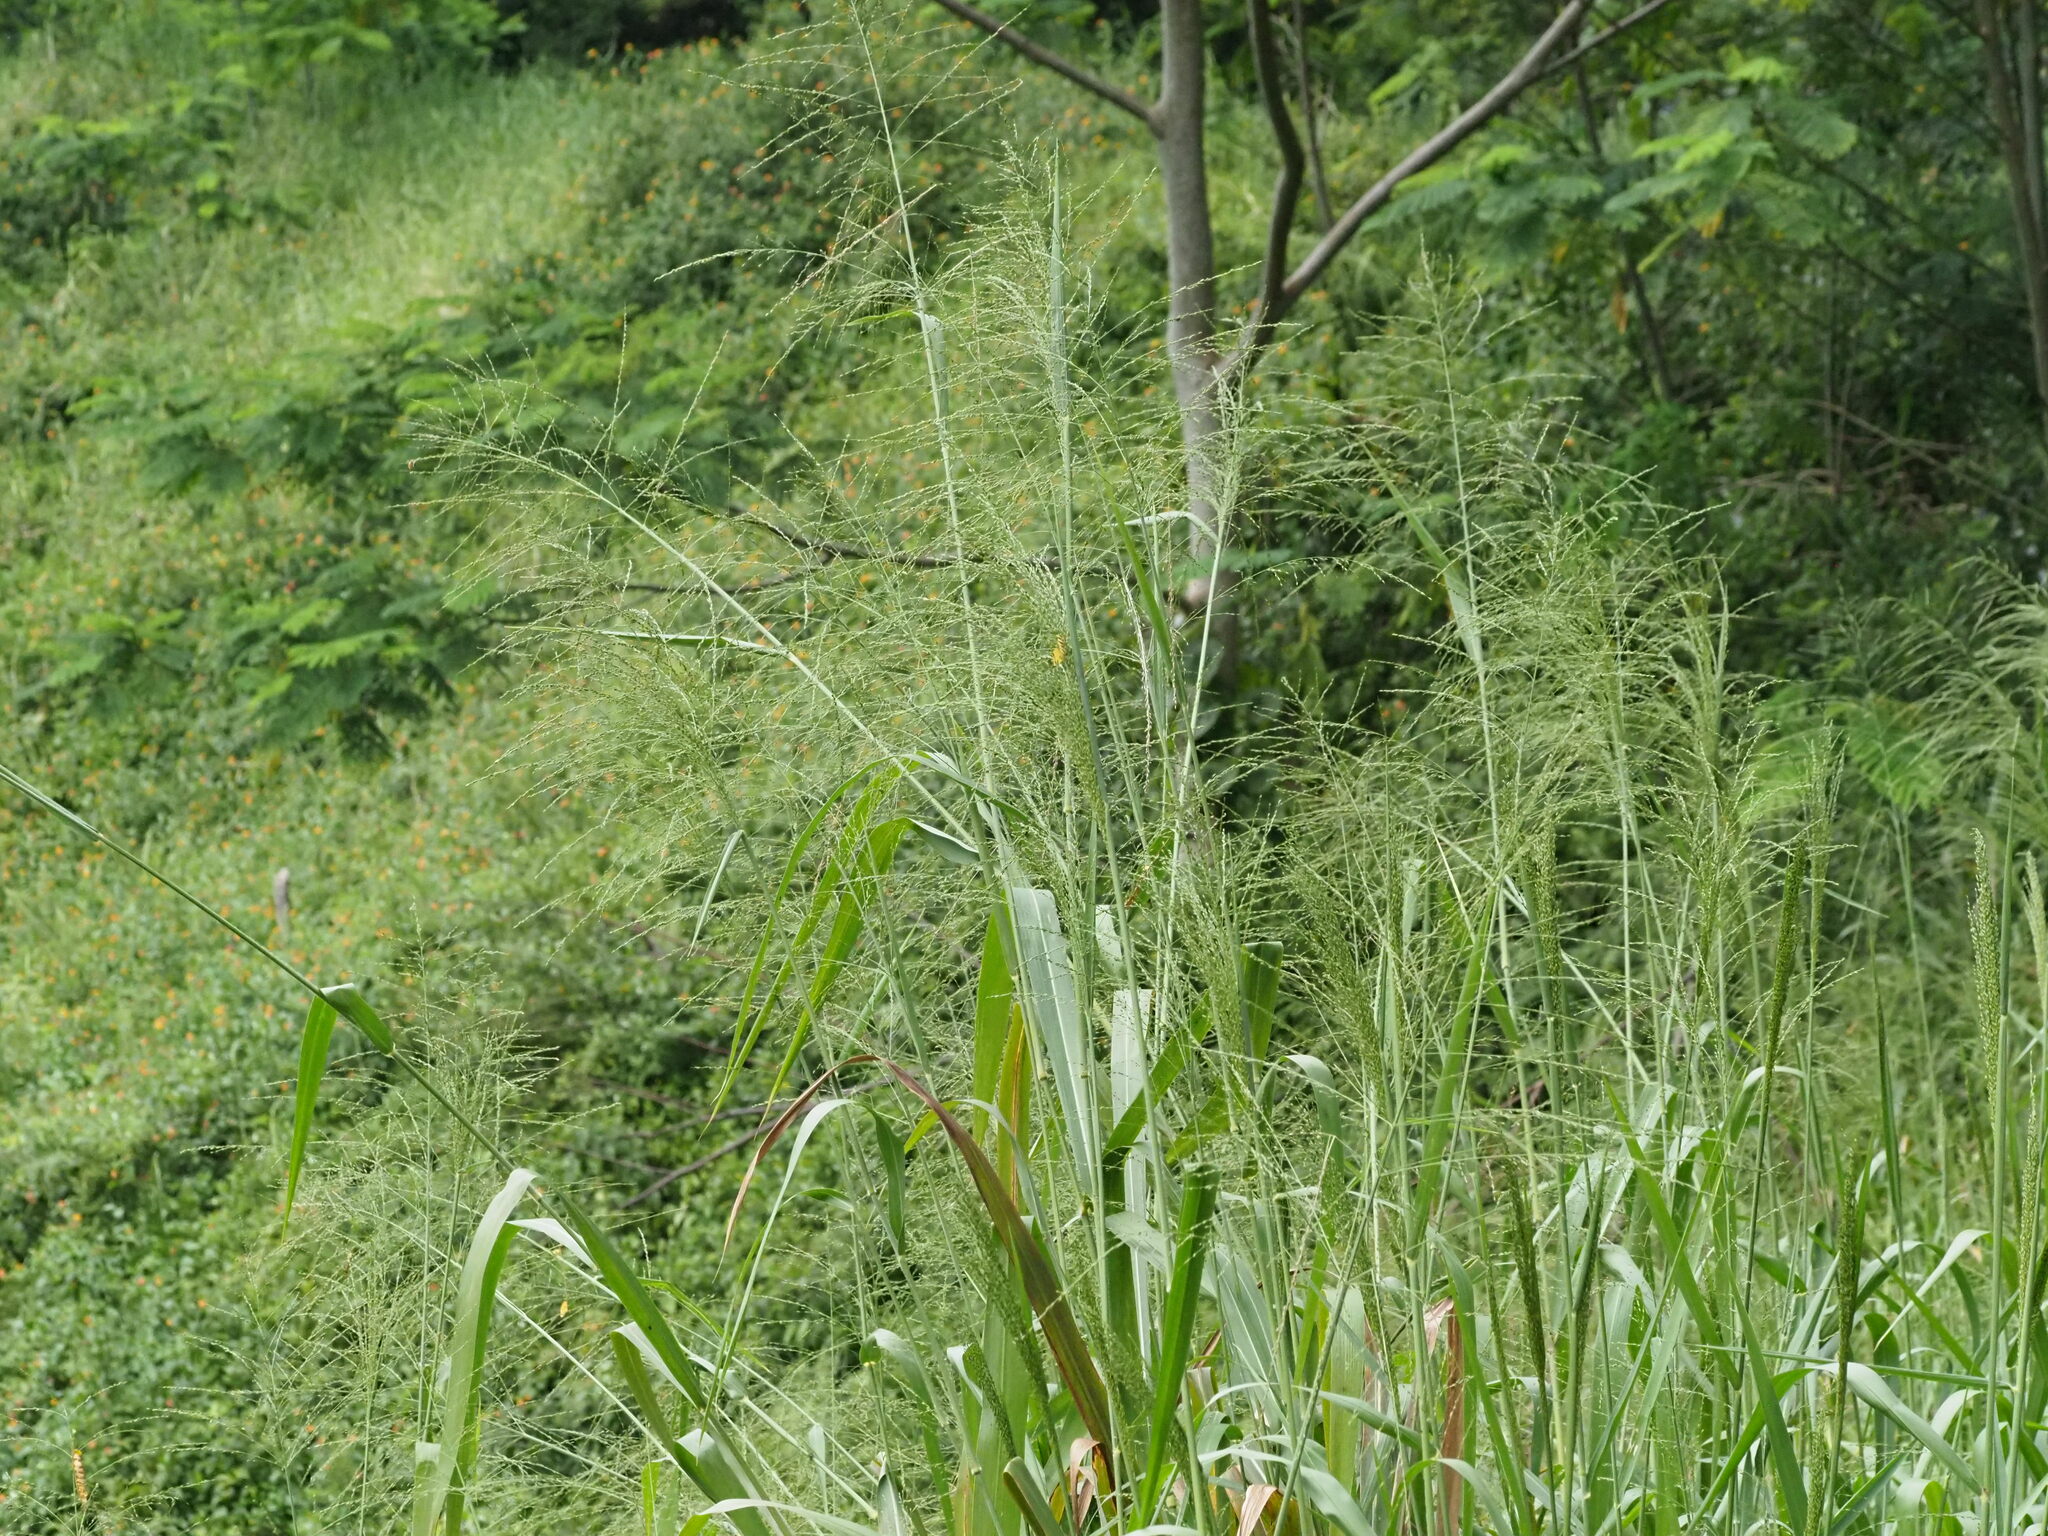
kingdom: Plantae
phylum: Tracheophyta
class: Liliopsida
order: Poales
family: Poaceae
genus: Megathyrsus
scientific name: Megathyrsus maximus
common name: Guineagrass
